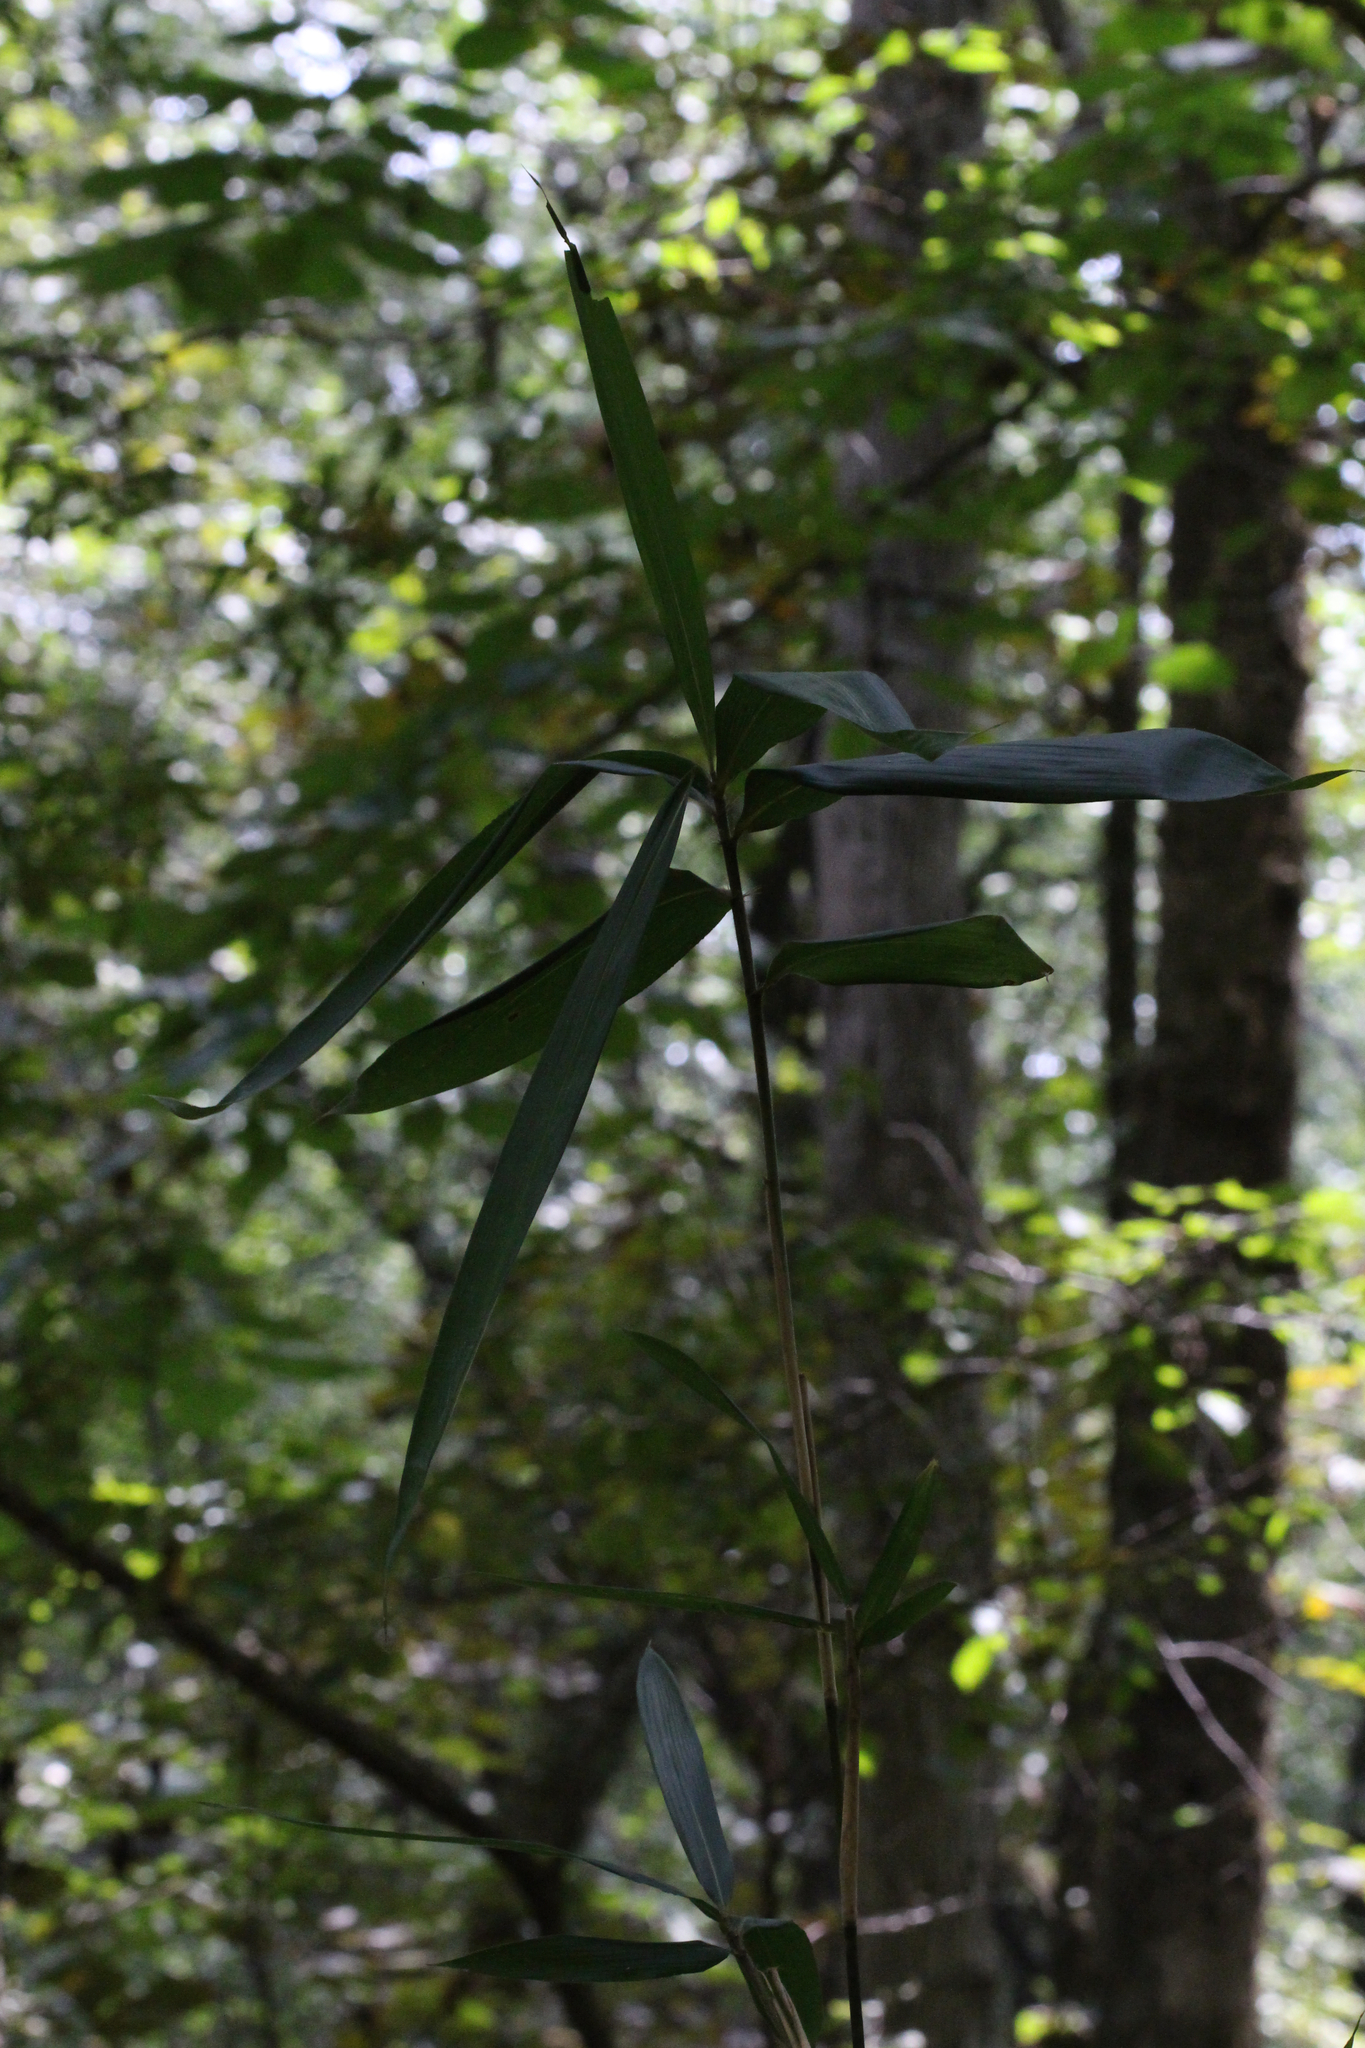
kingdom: Plantae
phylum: Tracheophyta
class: Liliopsida
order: Poales
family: Poaceae
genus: Arundinaria
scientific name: Arundinaria gigantea
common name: Giant cane
